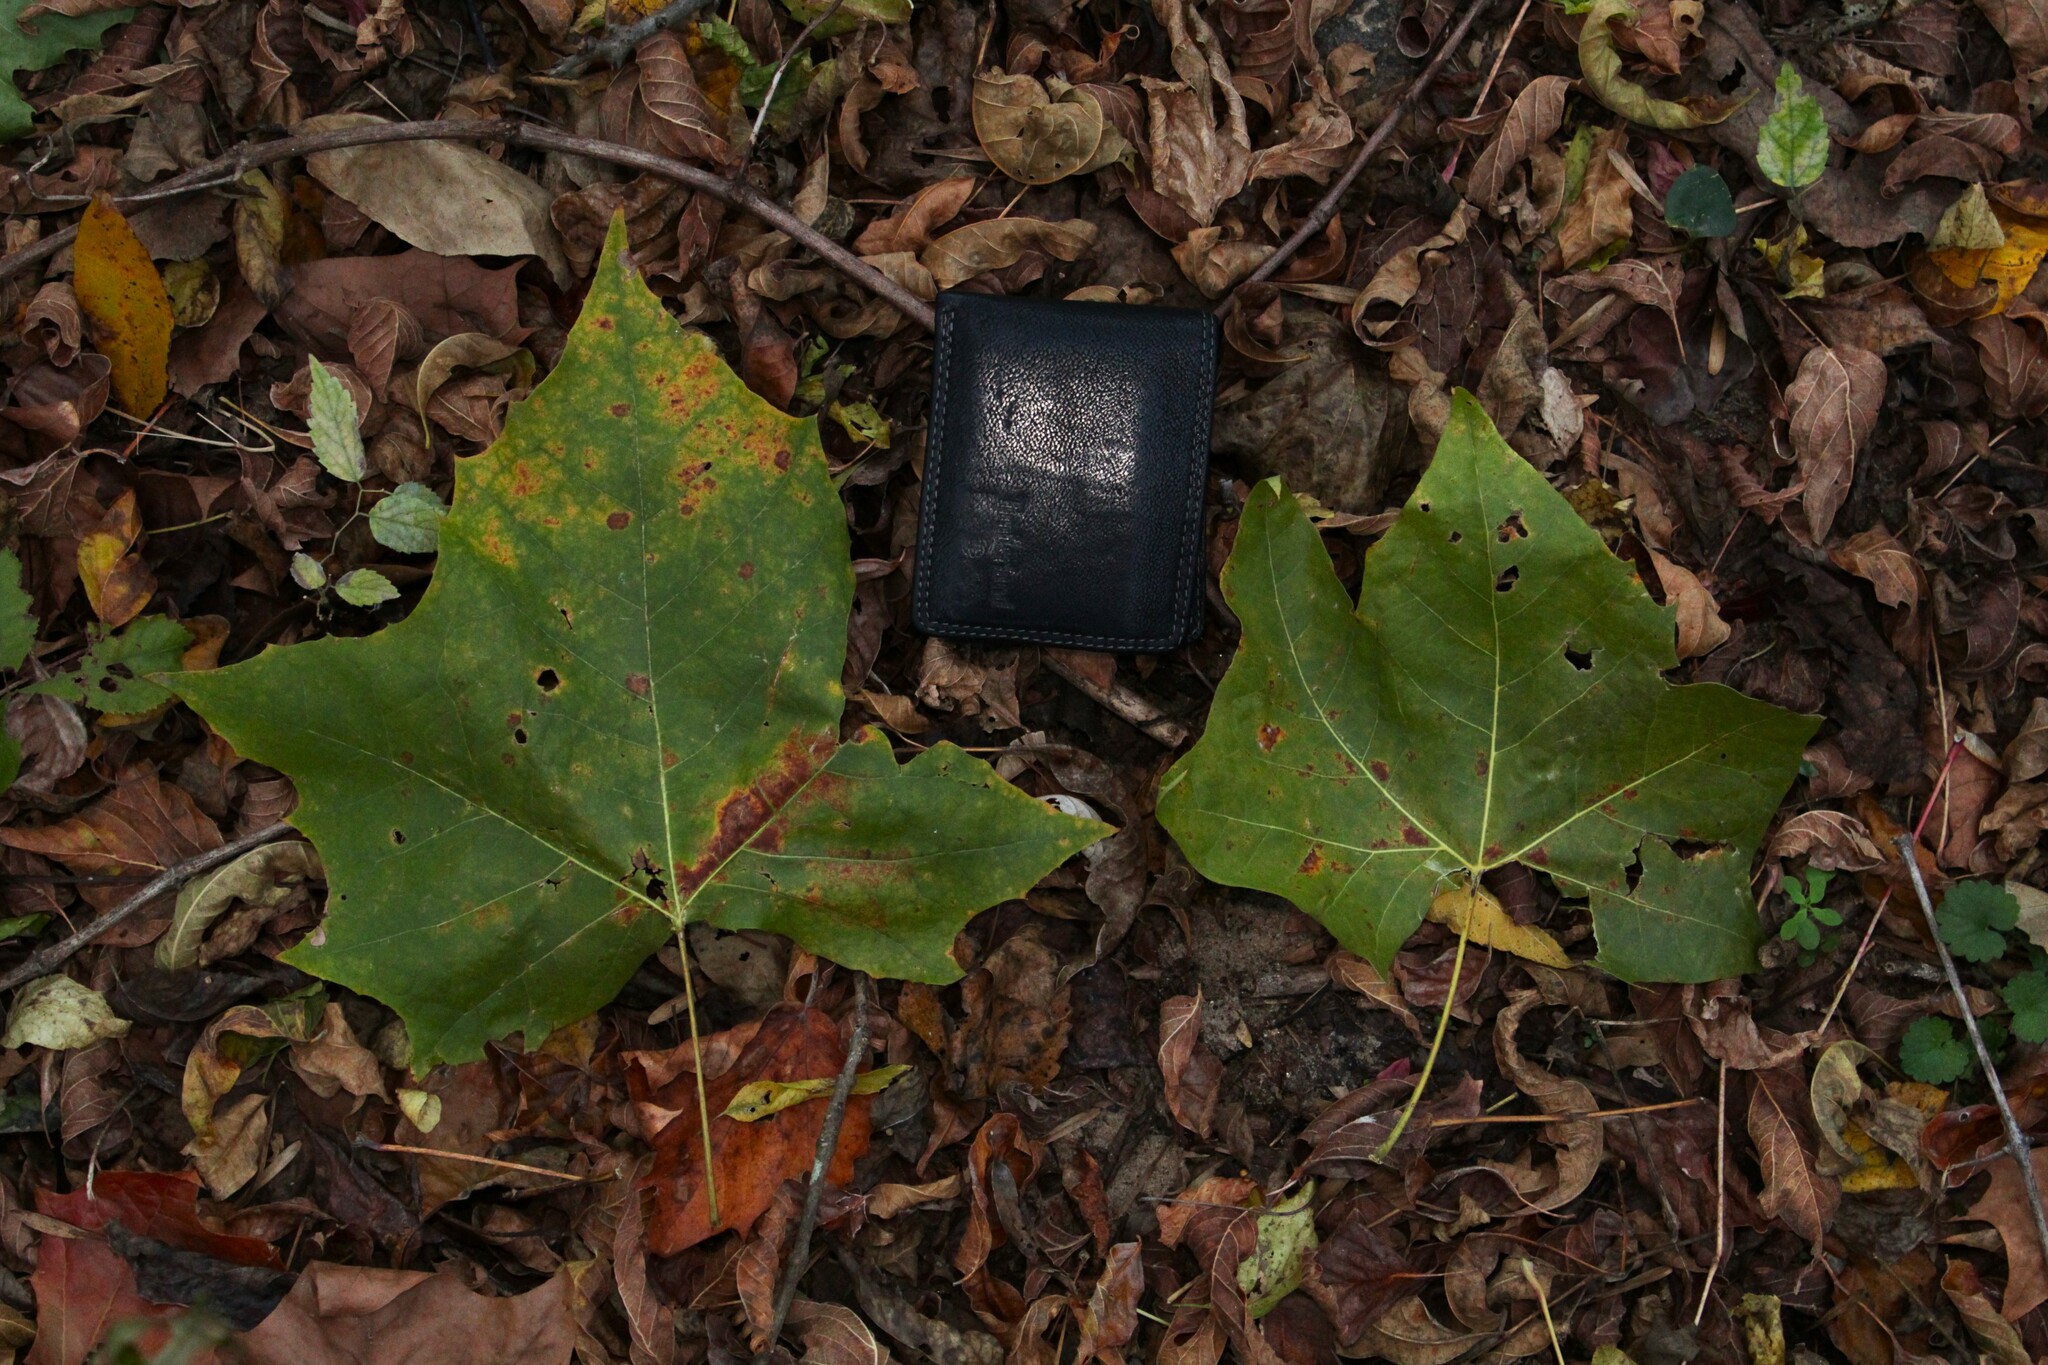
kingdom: Plantae
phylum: Tracheophyta
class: Magnoliopsida
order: Proteales
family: Platanaceae
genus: Platanus
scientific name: Platanus occidentalis
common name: American sycamore
